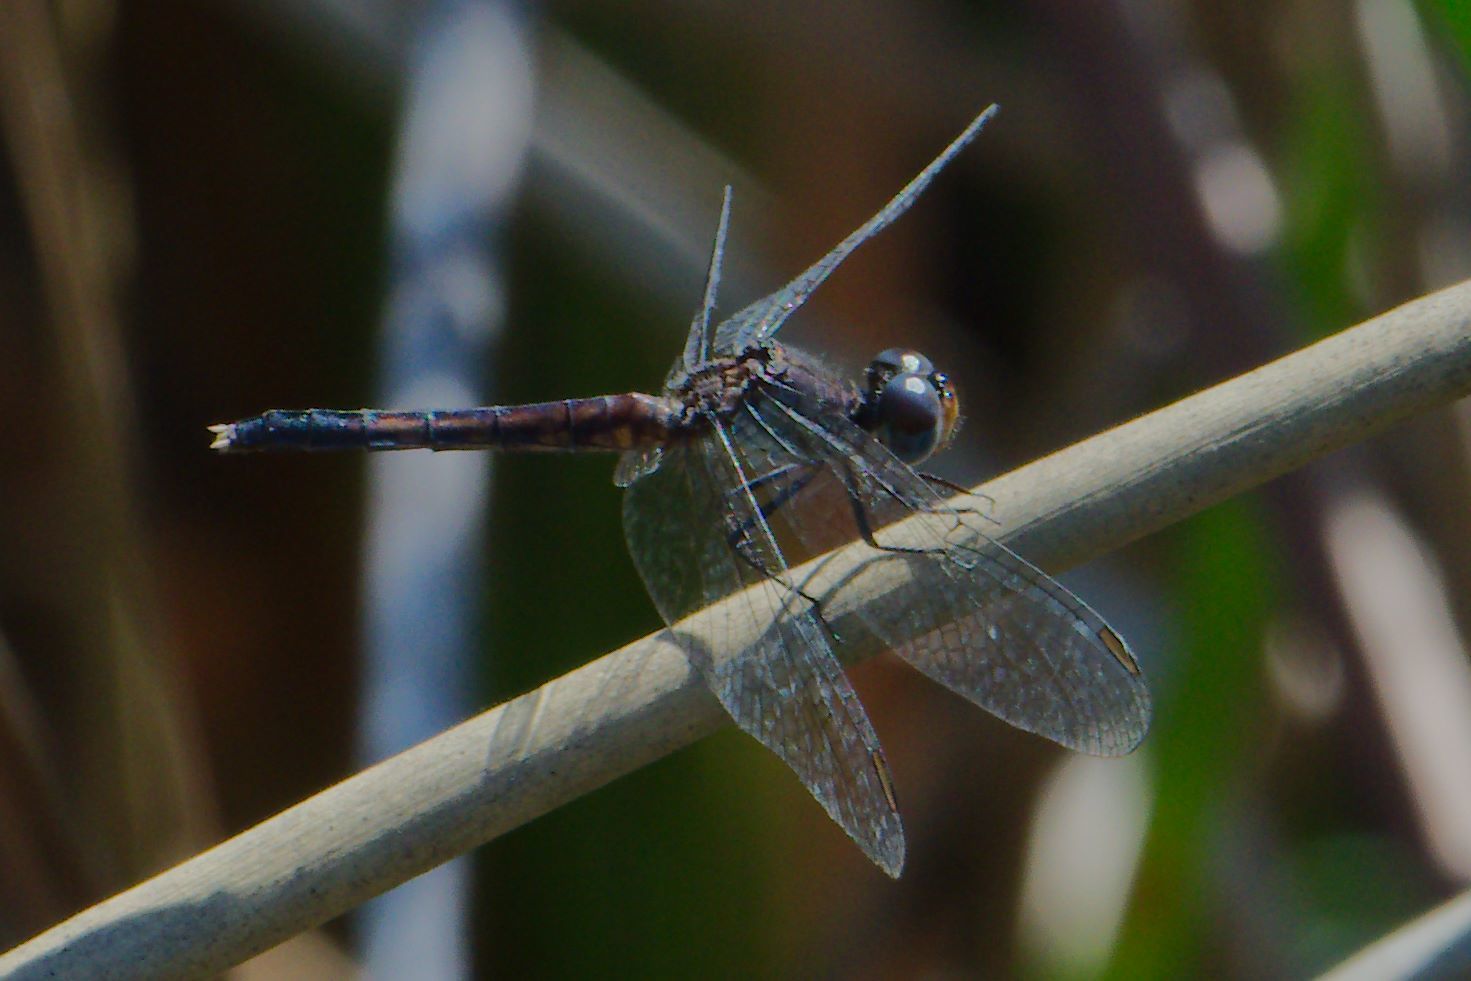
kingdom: Animalia
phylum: Arthropoda
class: Insecta
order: Odonata
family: Libellulidae
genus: Erythrodiplax
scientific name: Erythrodiplax minuscula
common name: Little blue dragonlet
